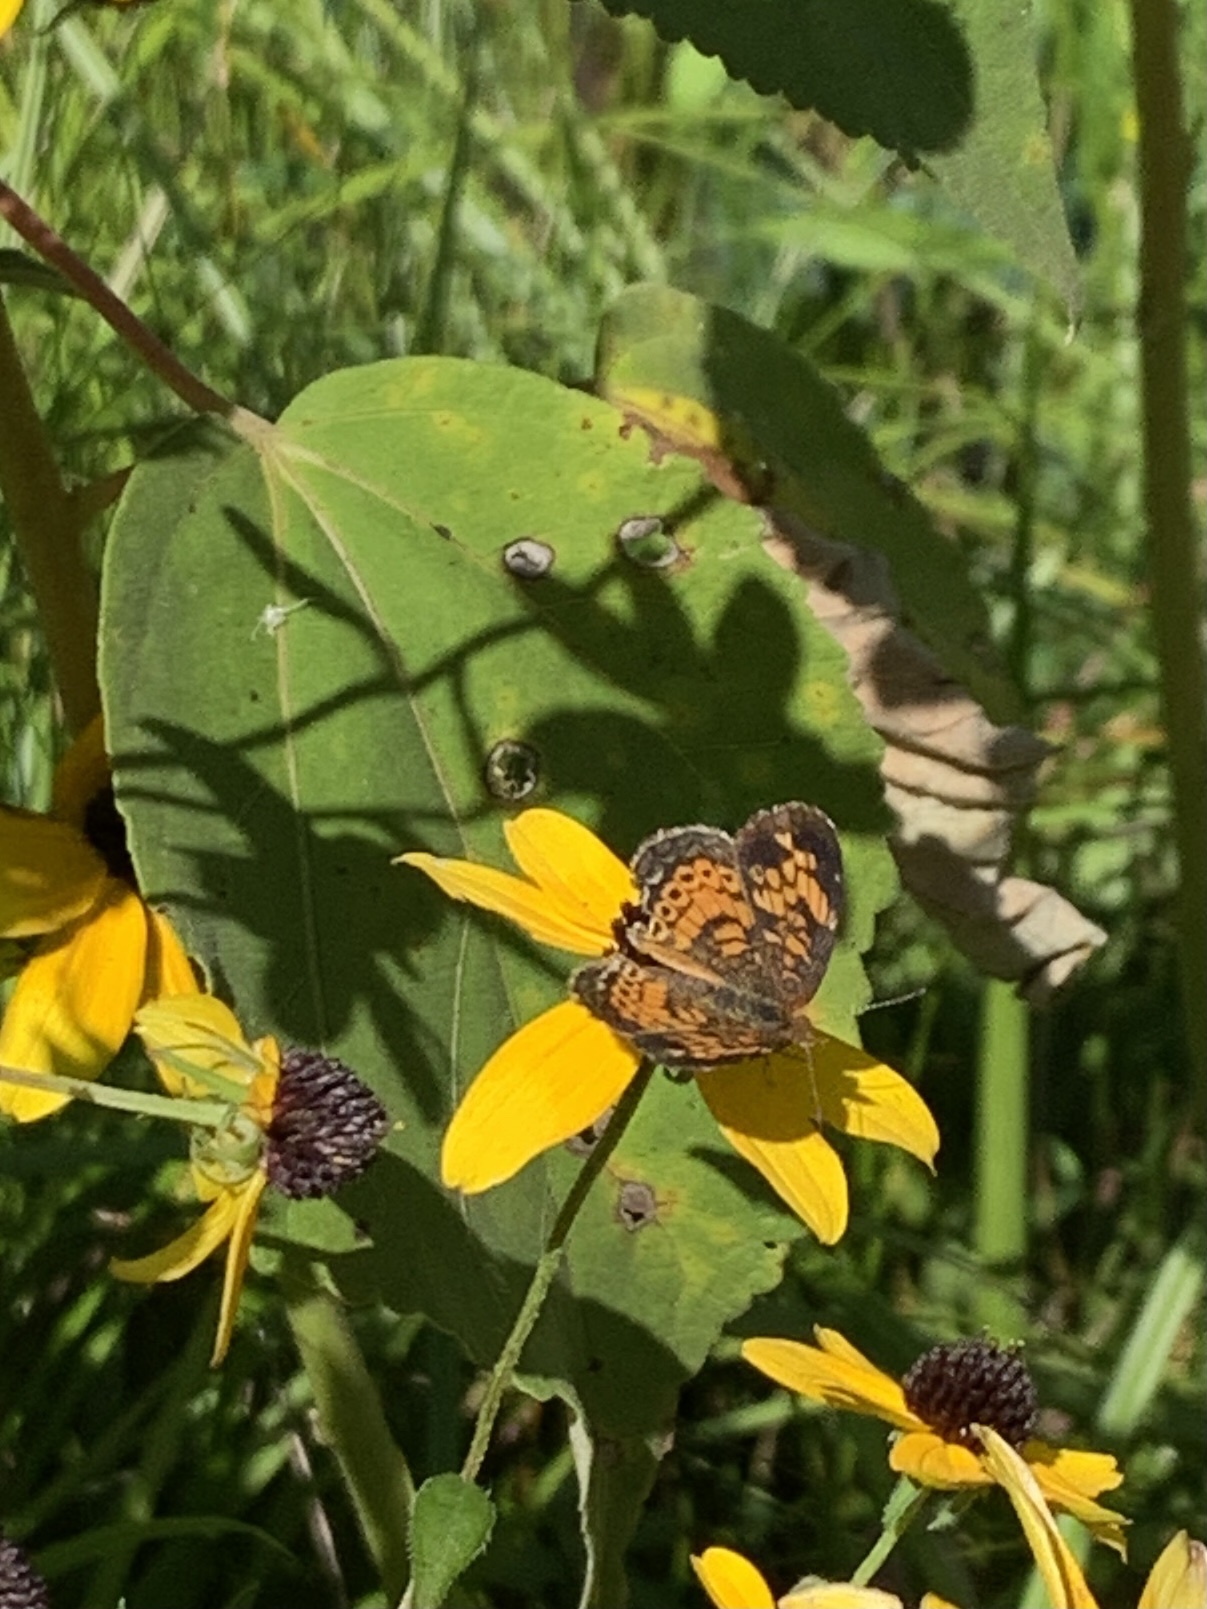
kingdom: Animalia
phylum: Arthropoda
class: Insecta
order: Lepidoptera
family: Nymphalidae
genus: Phyciodes
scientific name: Phyciodes tharos
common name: Pearl crescent
